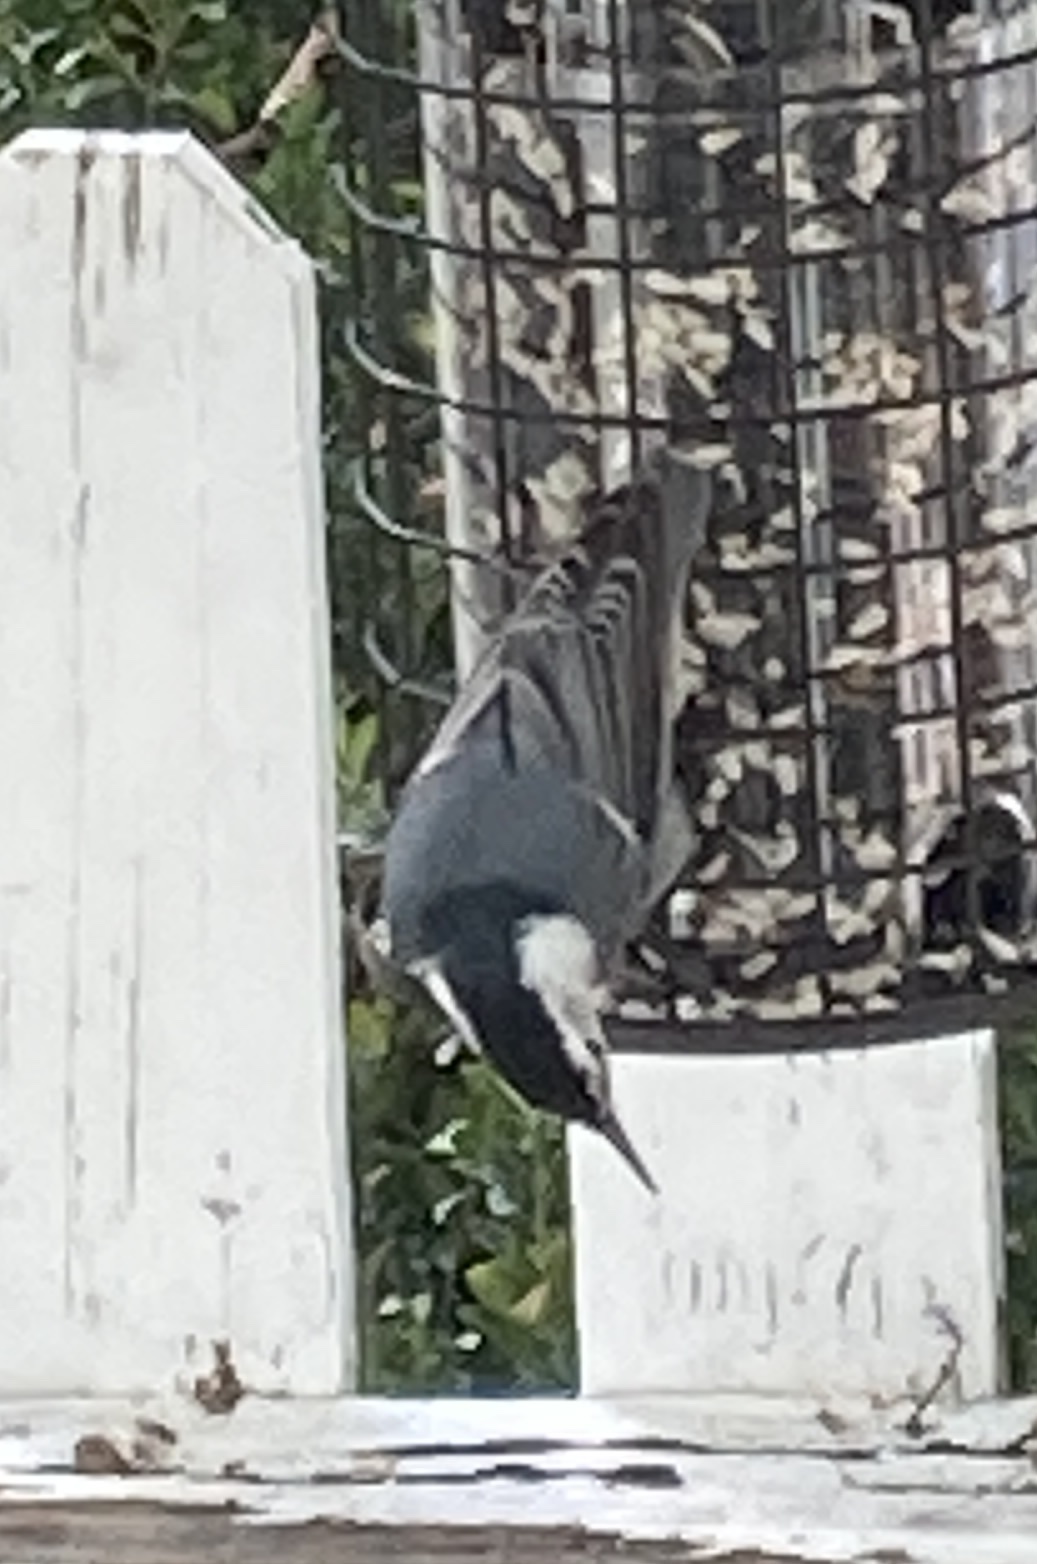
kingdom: Animalia
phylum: Chordata
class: Aves
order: Passeriformes
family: Sittidae
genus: Sitta
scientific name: Sitta carolinensis
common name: White-breasted nuthatch
